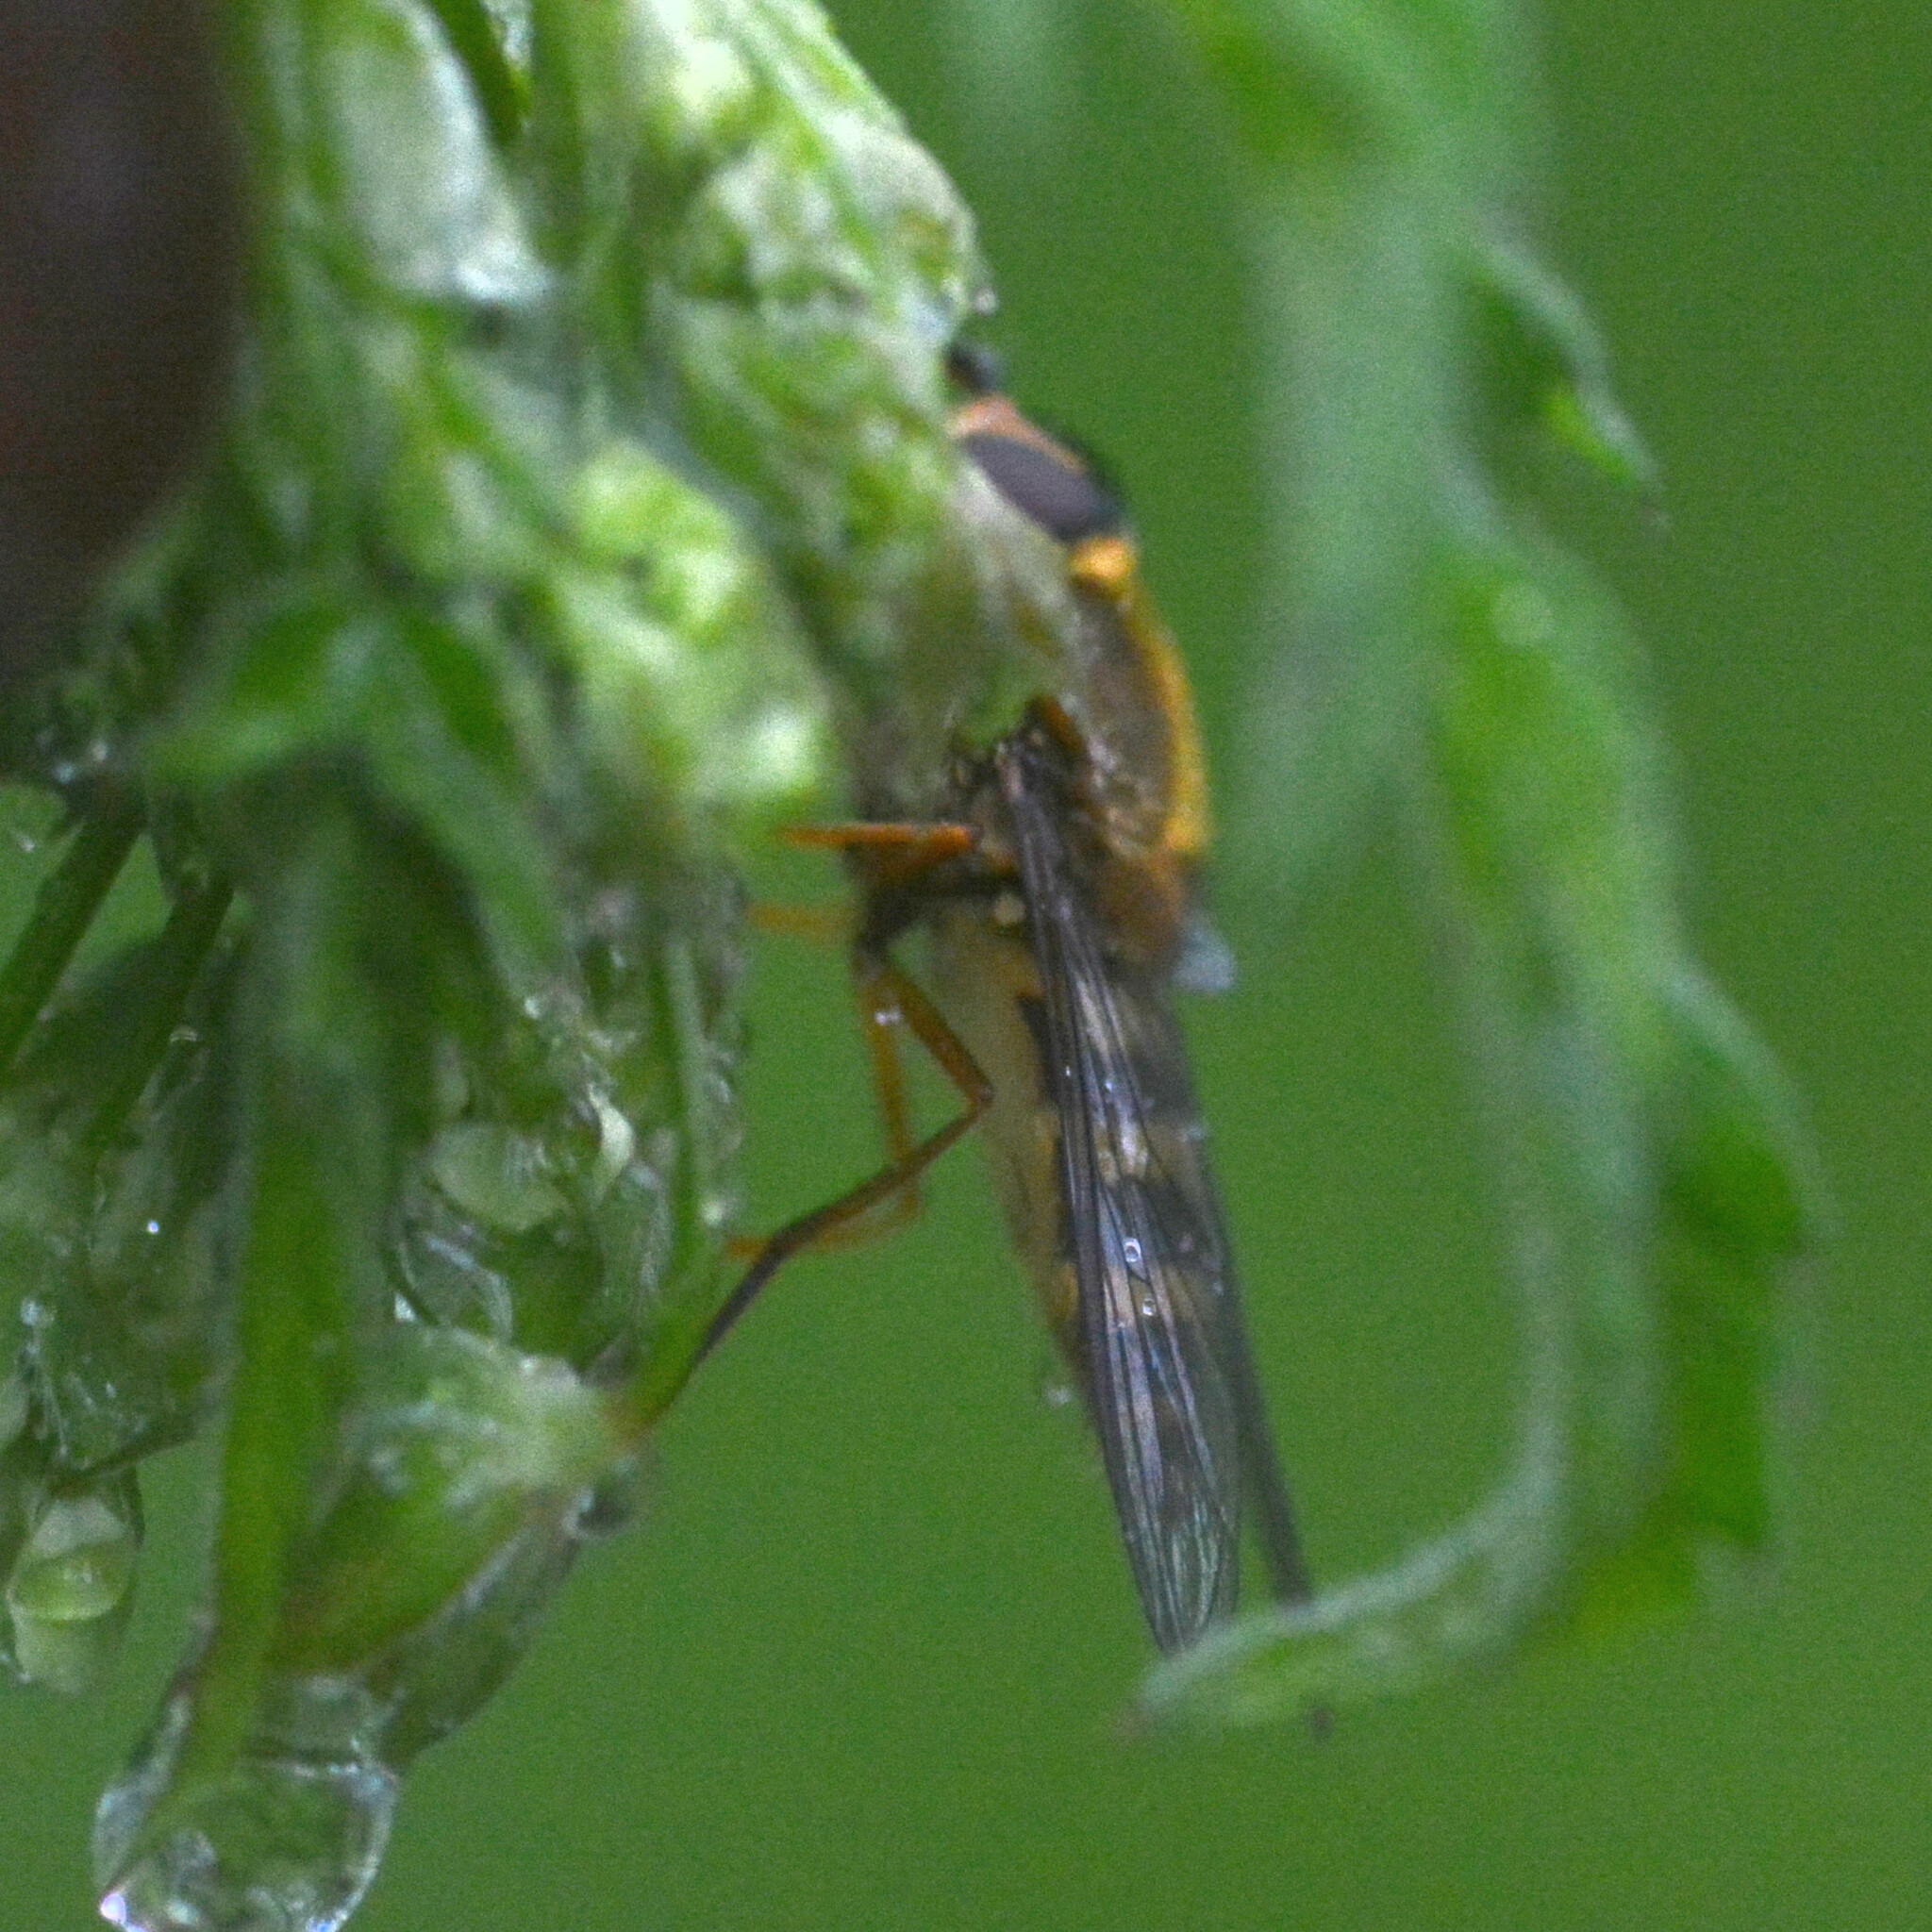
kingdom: Animalia
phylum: Arthropoda
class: Insecta
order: Diptera
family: Syrphidae
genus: Syrphus
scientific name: Syrphus ribesii
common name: Common flower fly
